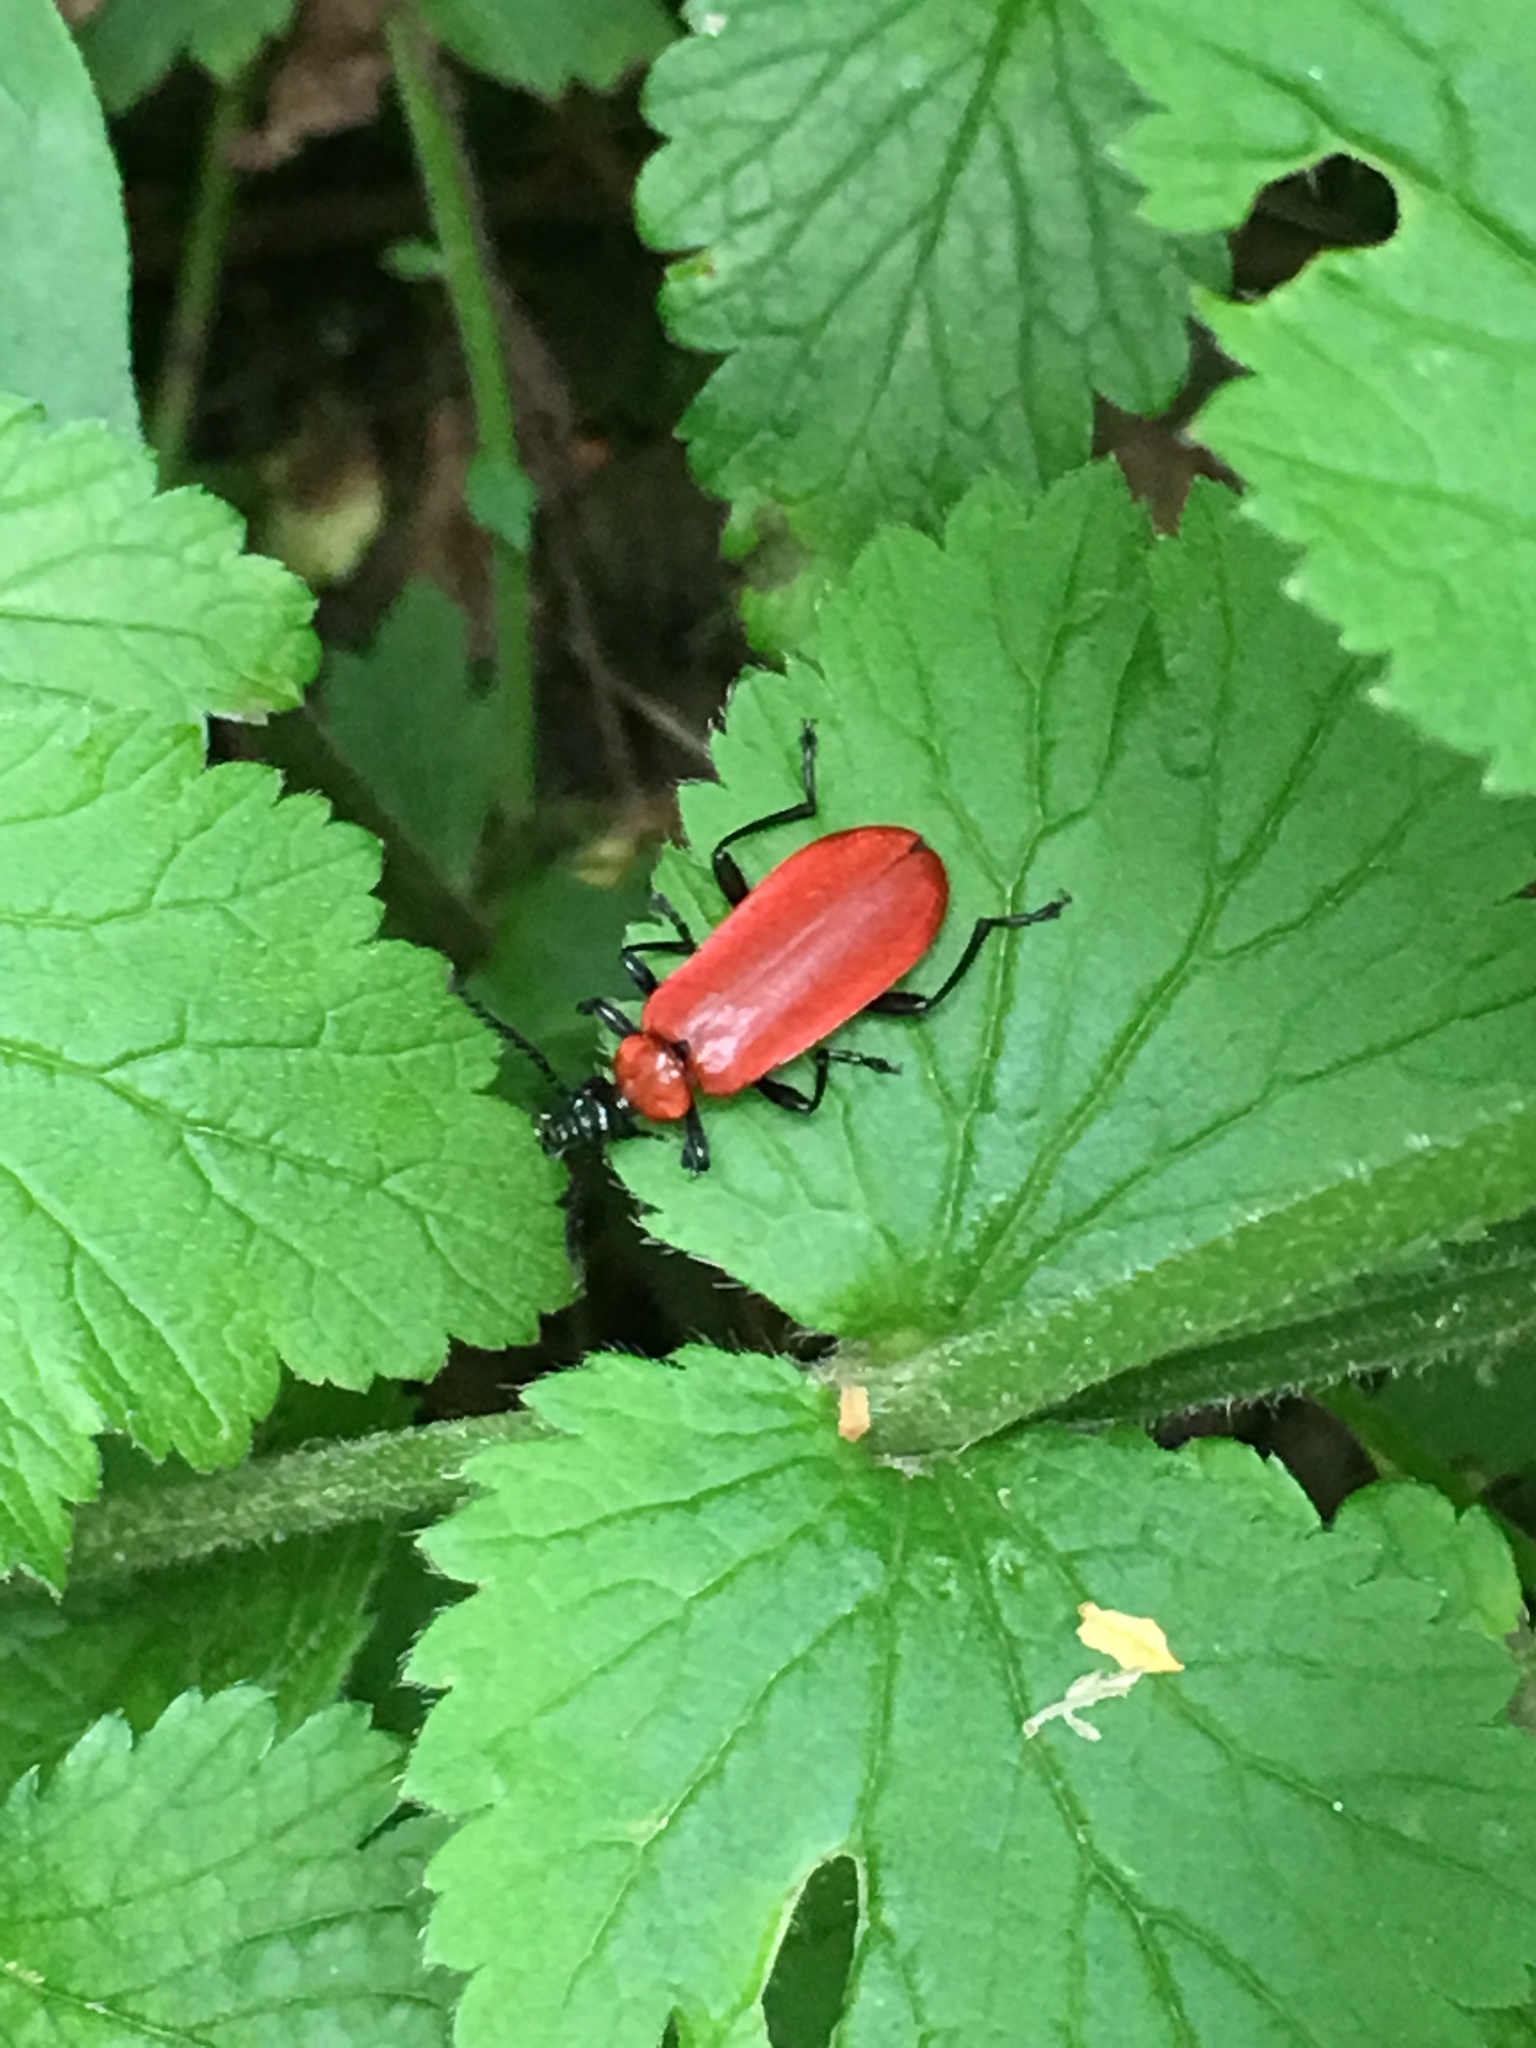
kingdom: Animalia
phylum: Arthropoda
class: Insecta
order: Coleoptera
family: Pyrochroidae
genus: Pyrochroa
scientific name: Pyrochroa coccinea
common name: Black-headed cardinal beetle
